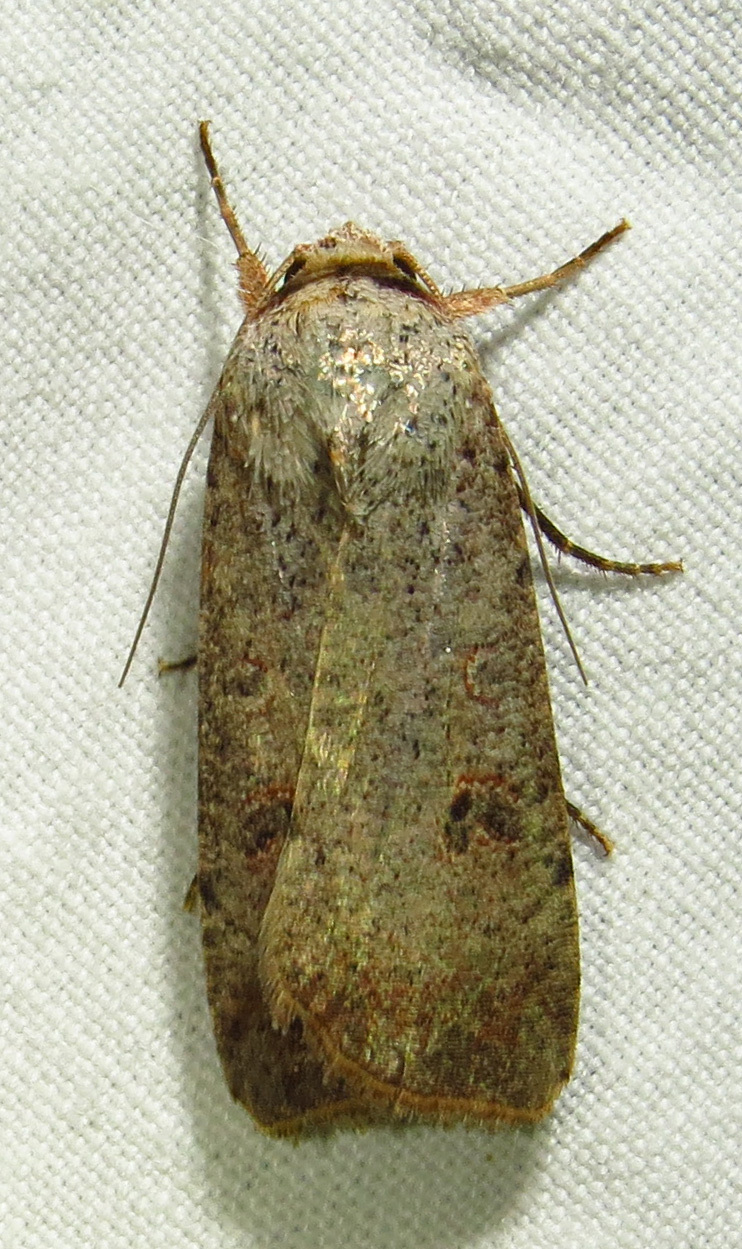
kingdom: Animalia
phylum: Arthropoda
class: Insecta
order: Lepidoptera
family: Noctuidae
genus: Anicla
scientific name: Anicla infecta
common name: Green cutworm
